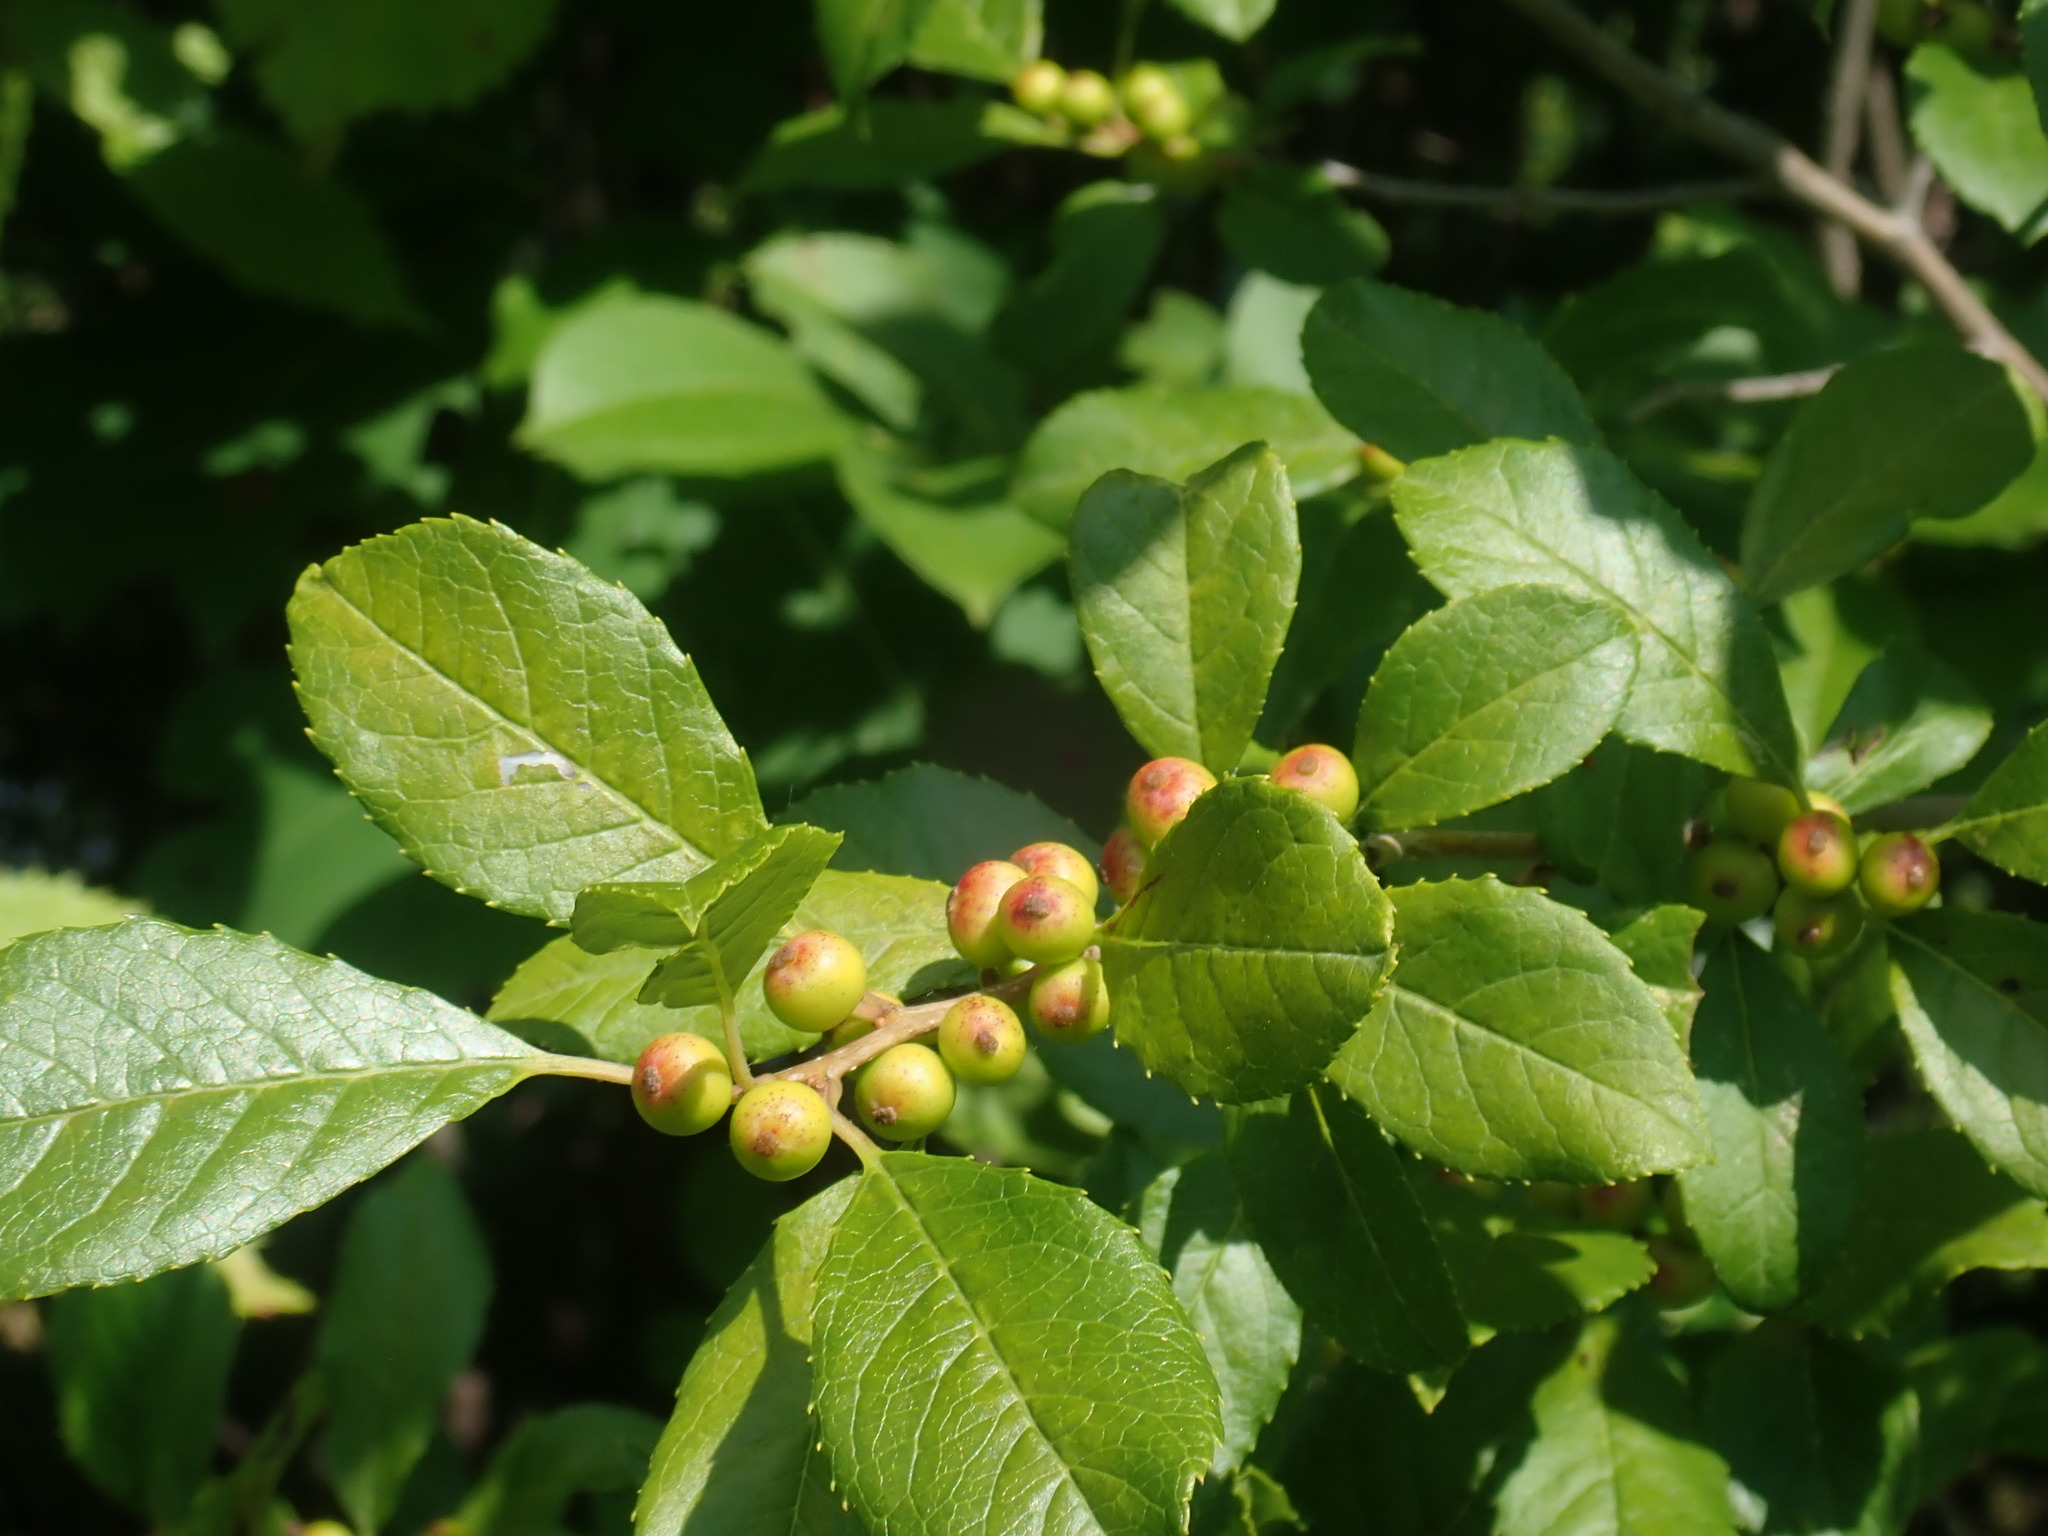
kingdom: Plantae
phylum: Tracheophyta
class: Magnoliopsida
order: Aquifoliales
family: Aquifoliaceae
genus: Ilex
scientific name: Ilex verticillata
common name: Virginia winterberry
